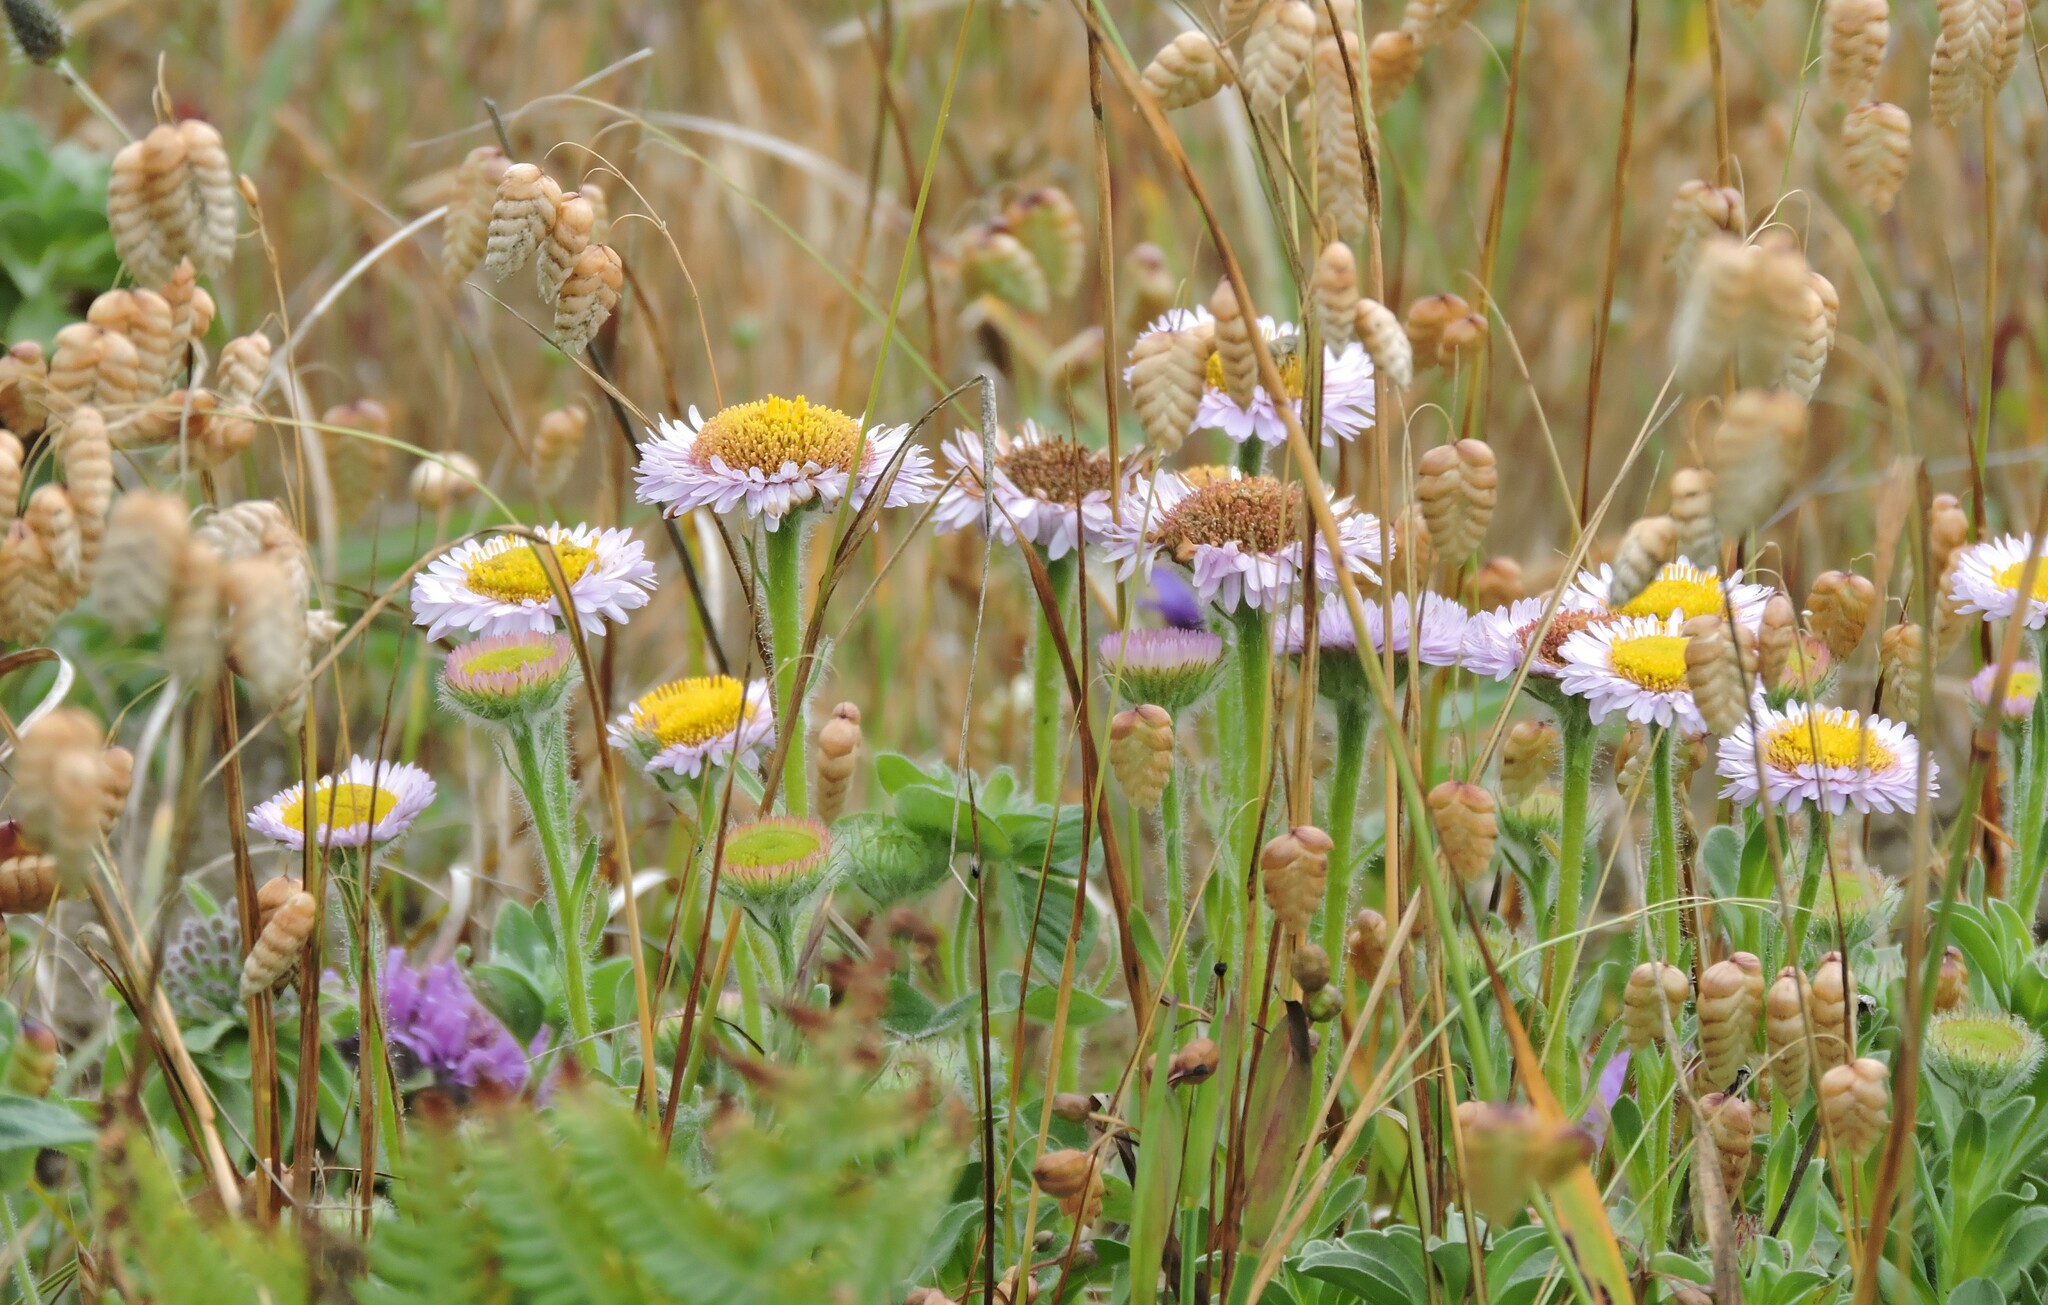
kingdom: Plantae
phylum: Tracheophyta
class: Magnoliopsida
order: Asterales
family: Asteraceae
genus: Erigeron
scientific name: Erigeron glaucus
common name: Seaside daisy
